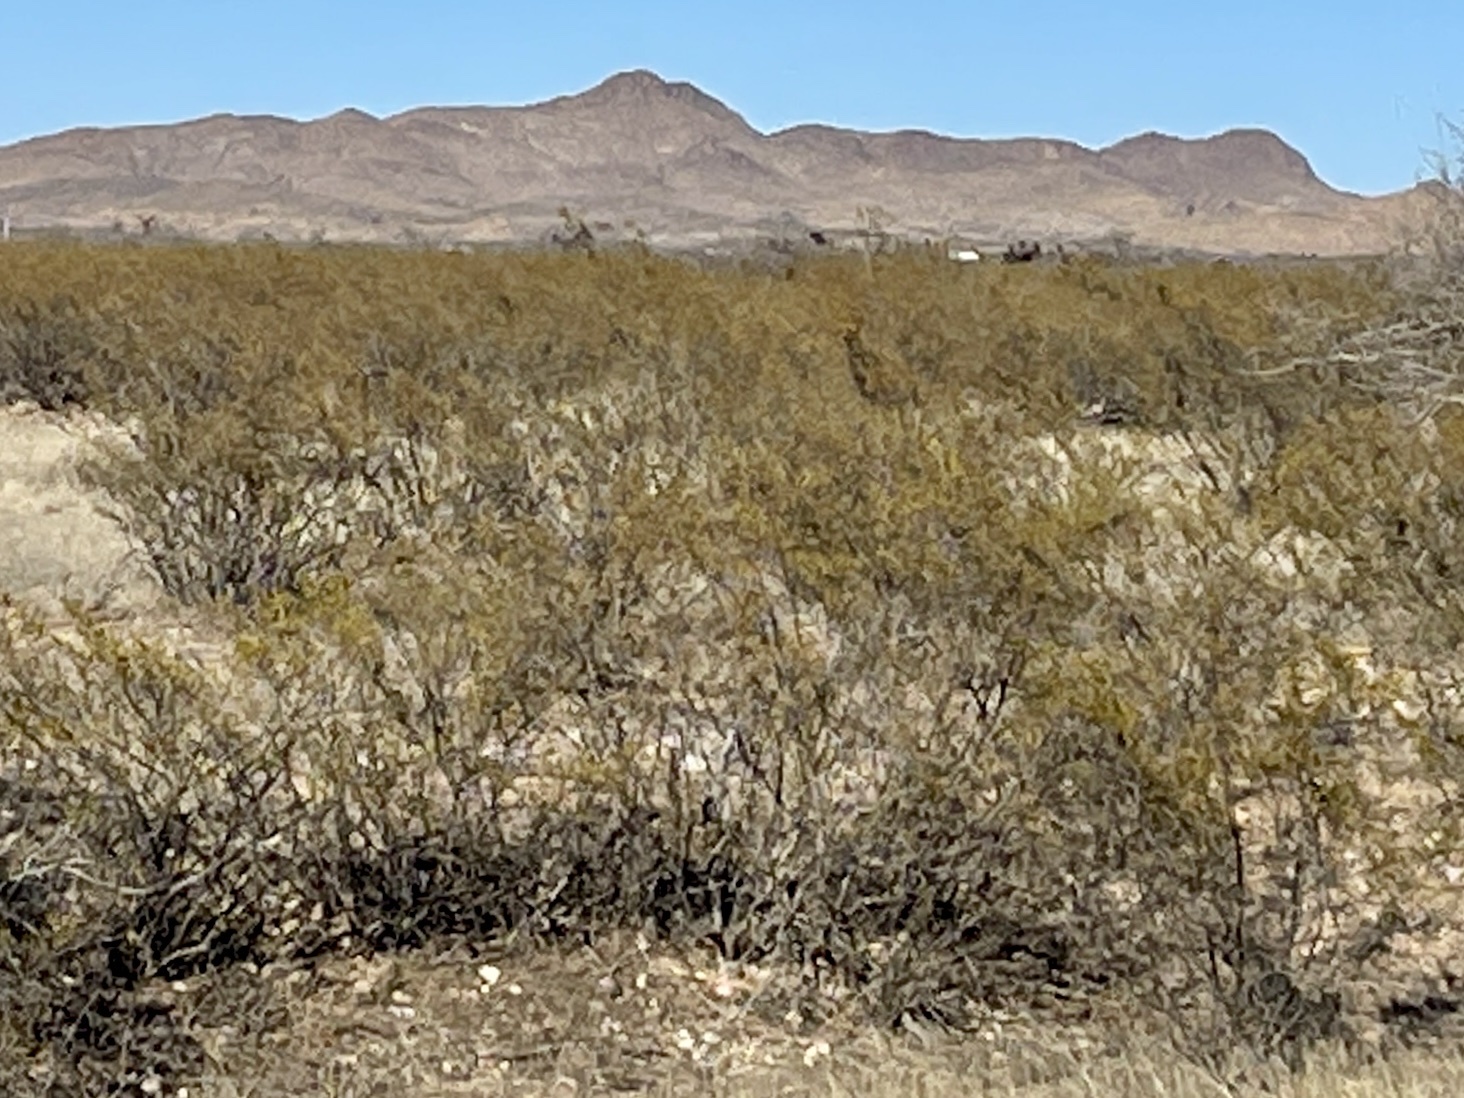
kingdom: Plantae
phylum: Tracheophyta
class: Magnoliopsida
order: Zygophyllales
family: Zygophyllaceae
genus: Larrea
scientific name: Larrea tridentata
